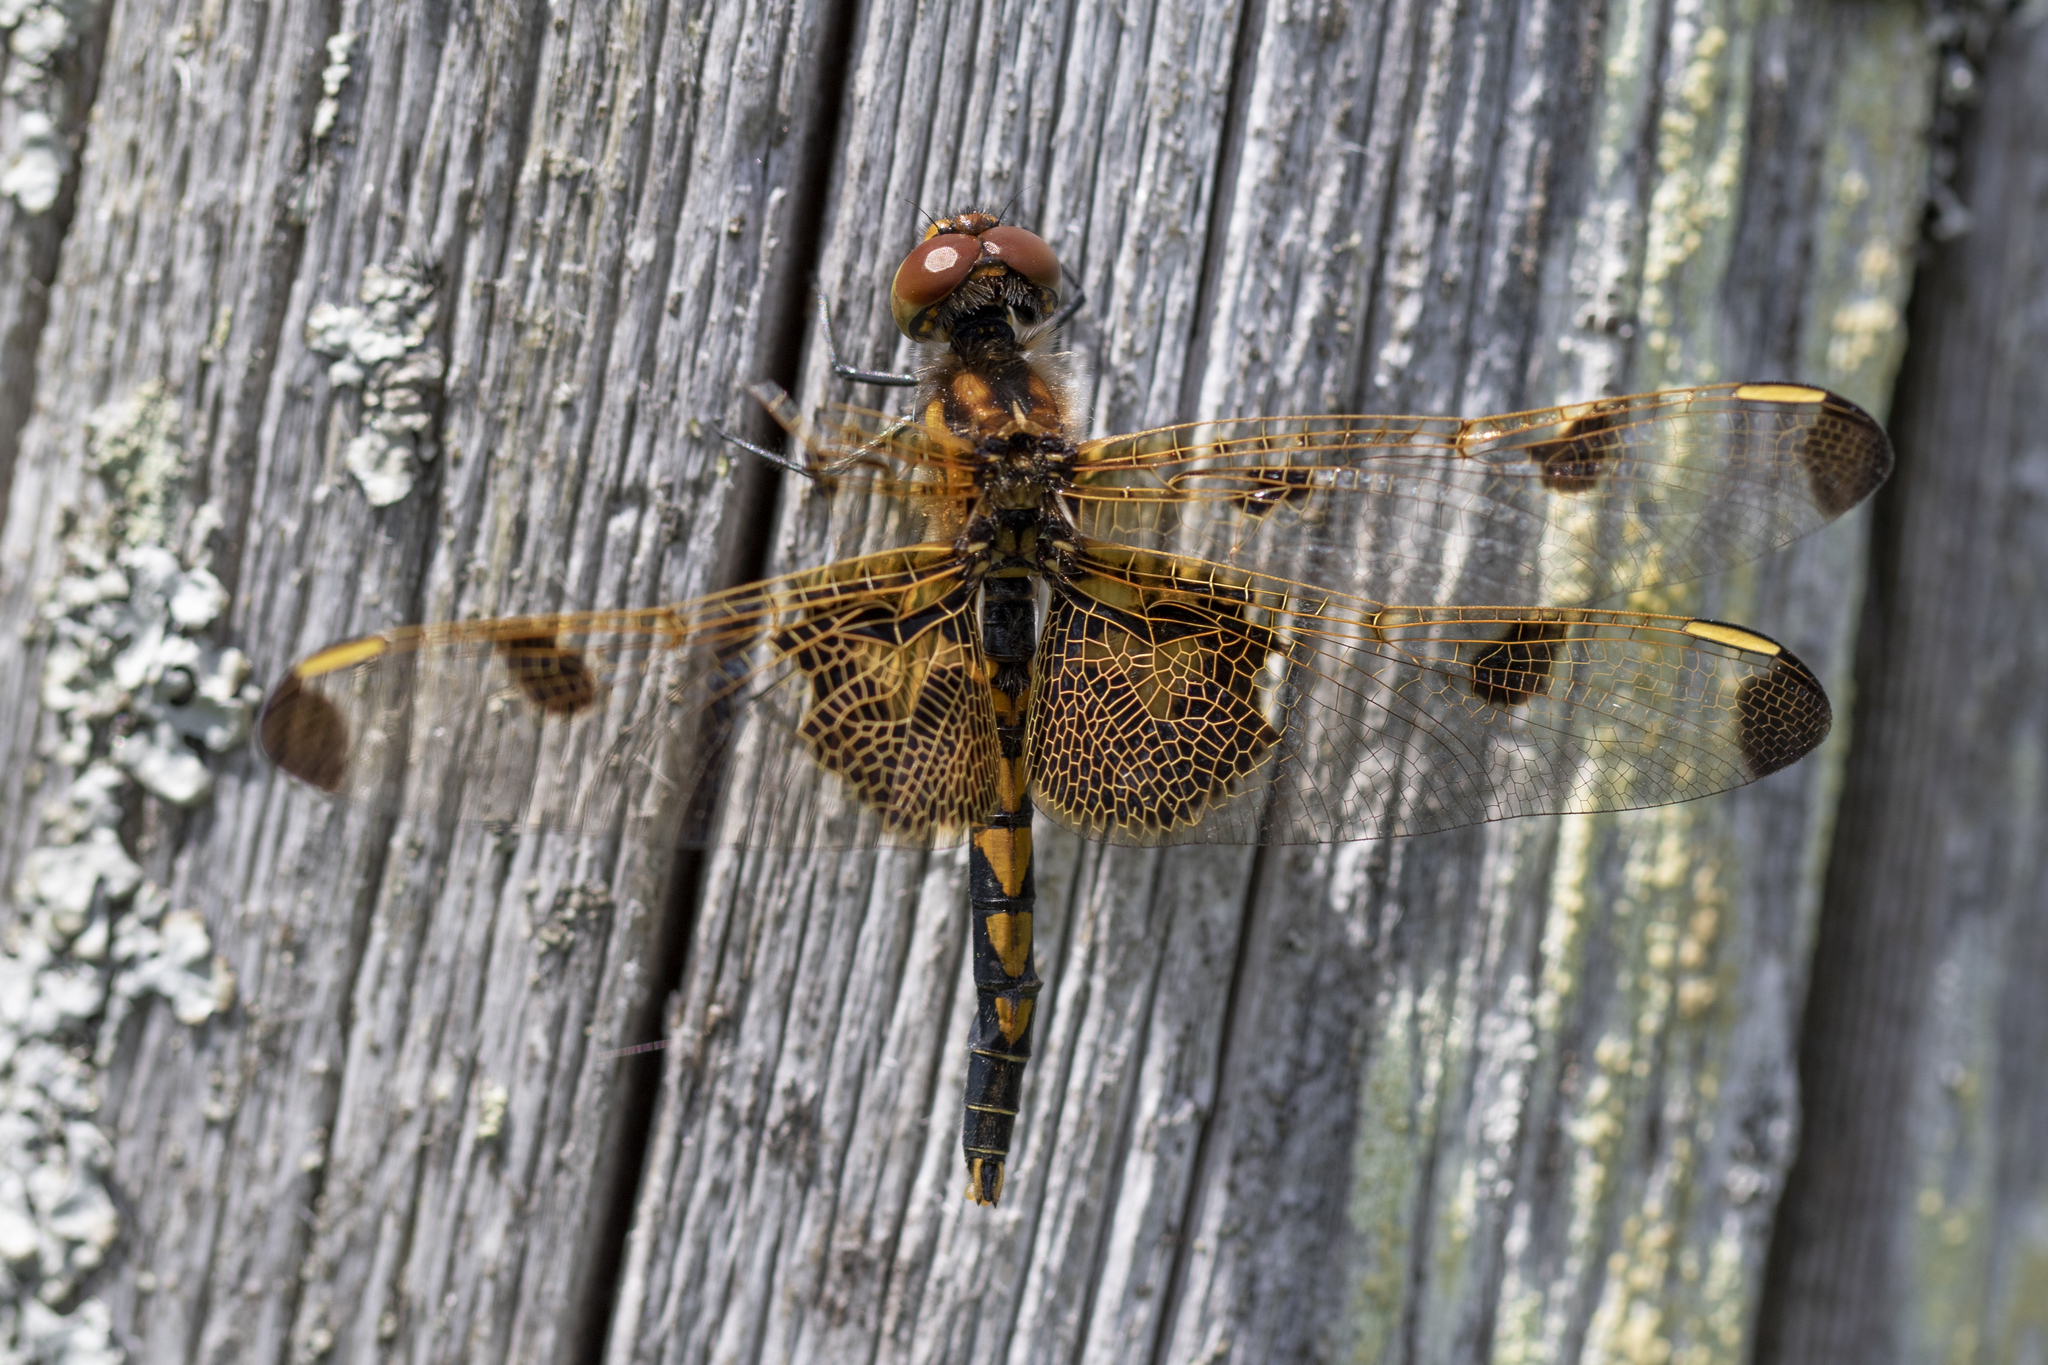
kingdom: Animalia
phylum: Arthropoda
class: Insecta
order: Odonata
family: Libellulidae
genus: Celithemis
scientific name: Celithemis elisa
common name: Calico pennant
